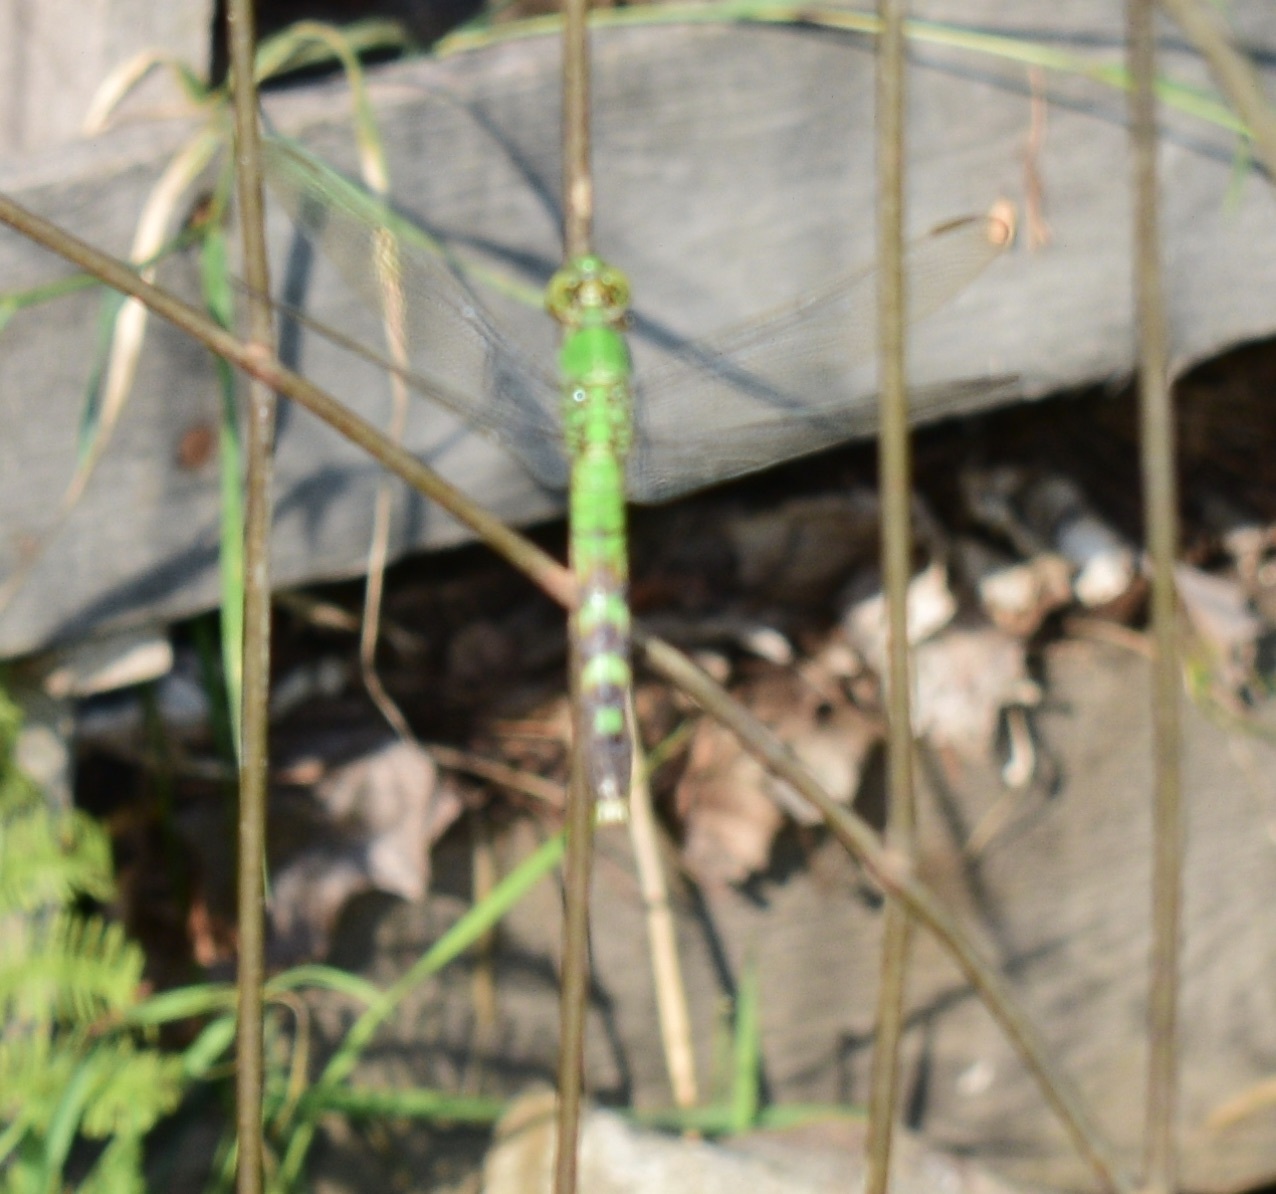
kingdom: Animalia
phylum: Arthropoda
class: Insecta
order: Odonata
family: Libellulidae
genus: Erythemis
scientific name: Erythemis simplicicollis
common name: Eastern pondhawk
